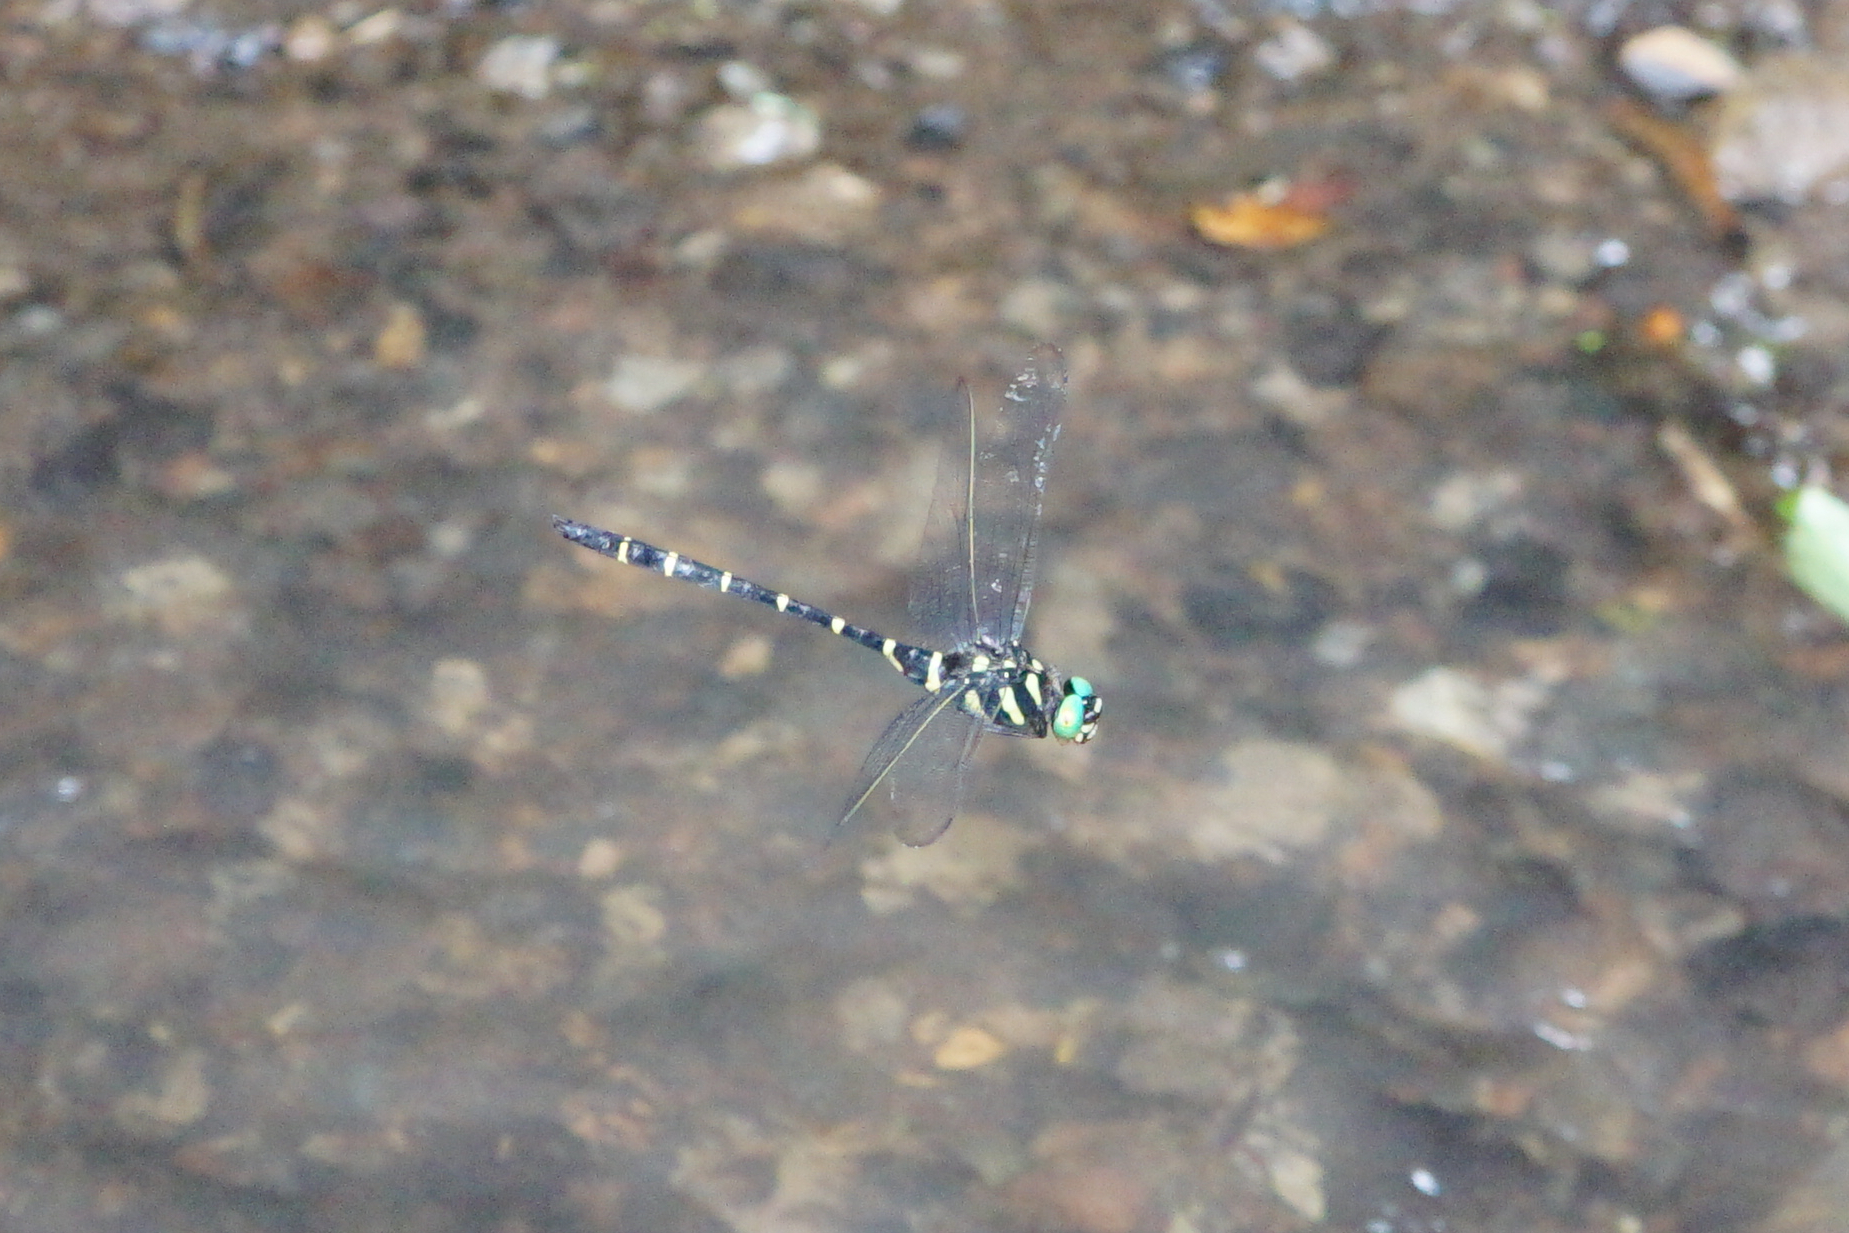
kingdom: Animalia
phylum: Arthropoda
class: Insecta
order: Odonata
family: Cordulegastridae
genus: Anotogaster
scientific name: Anotogaster sieboldii
